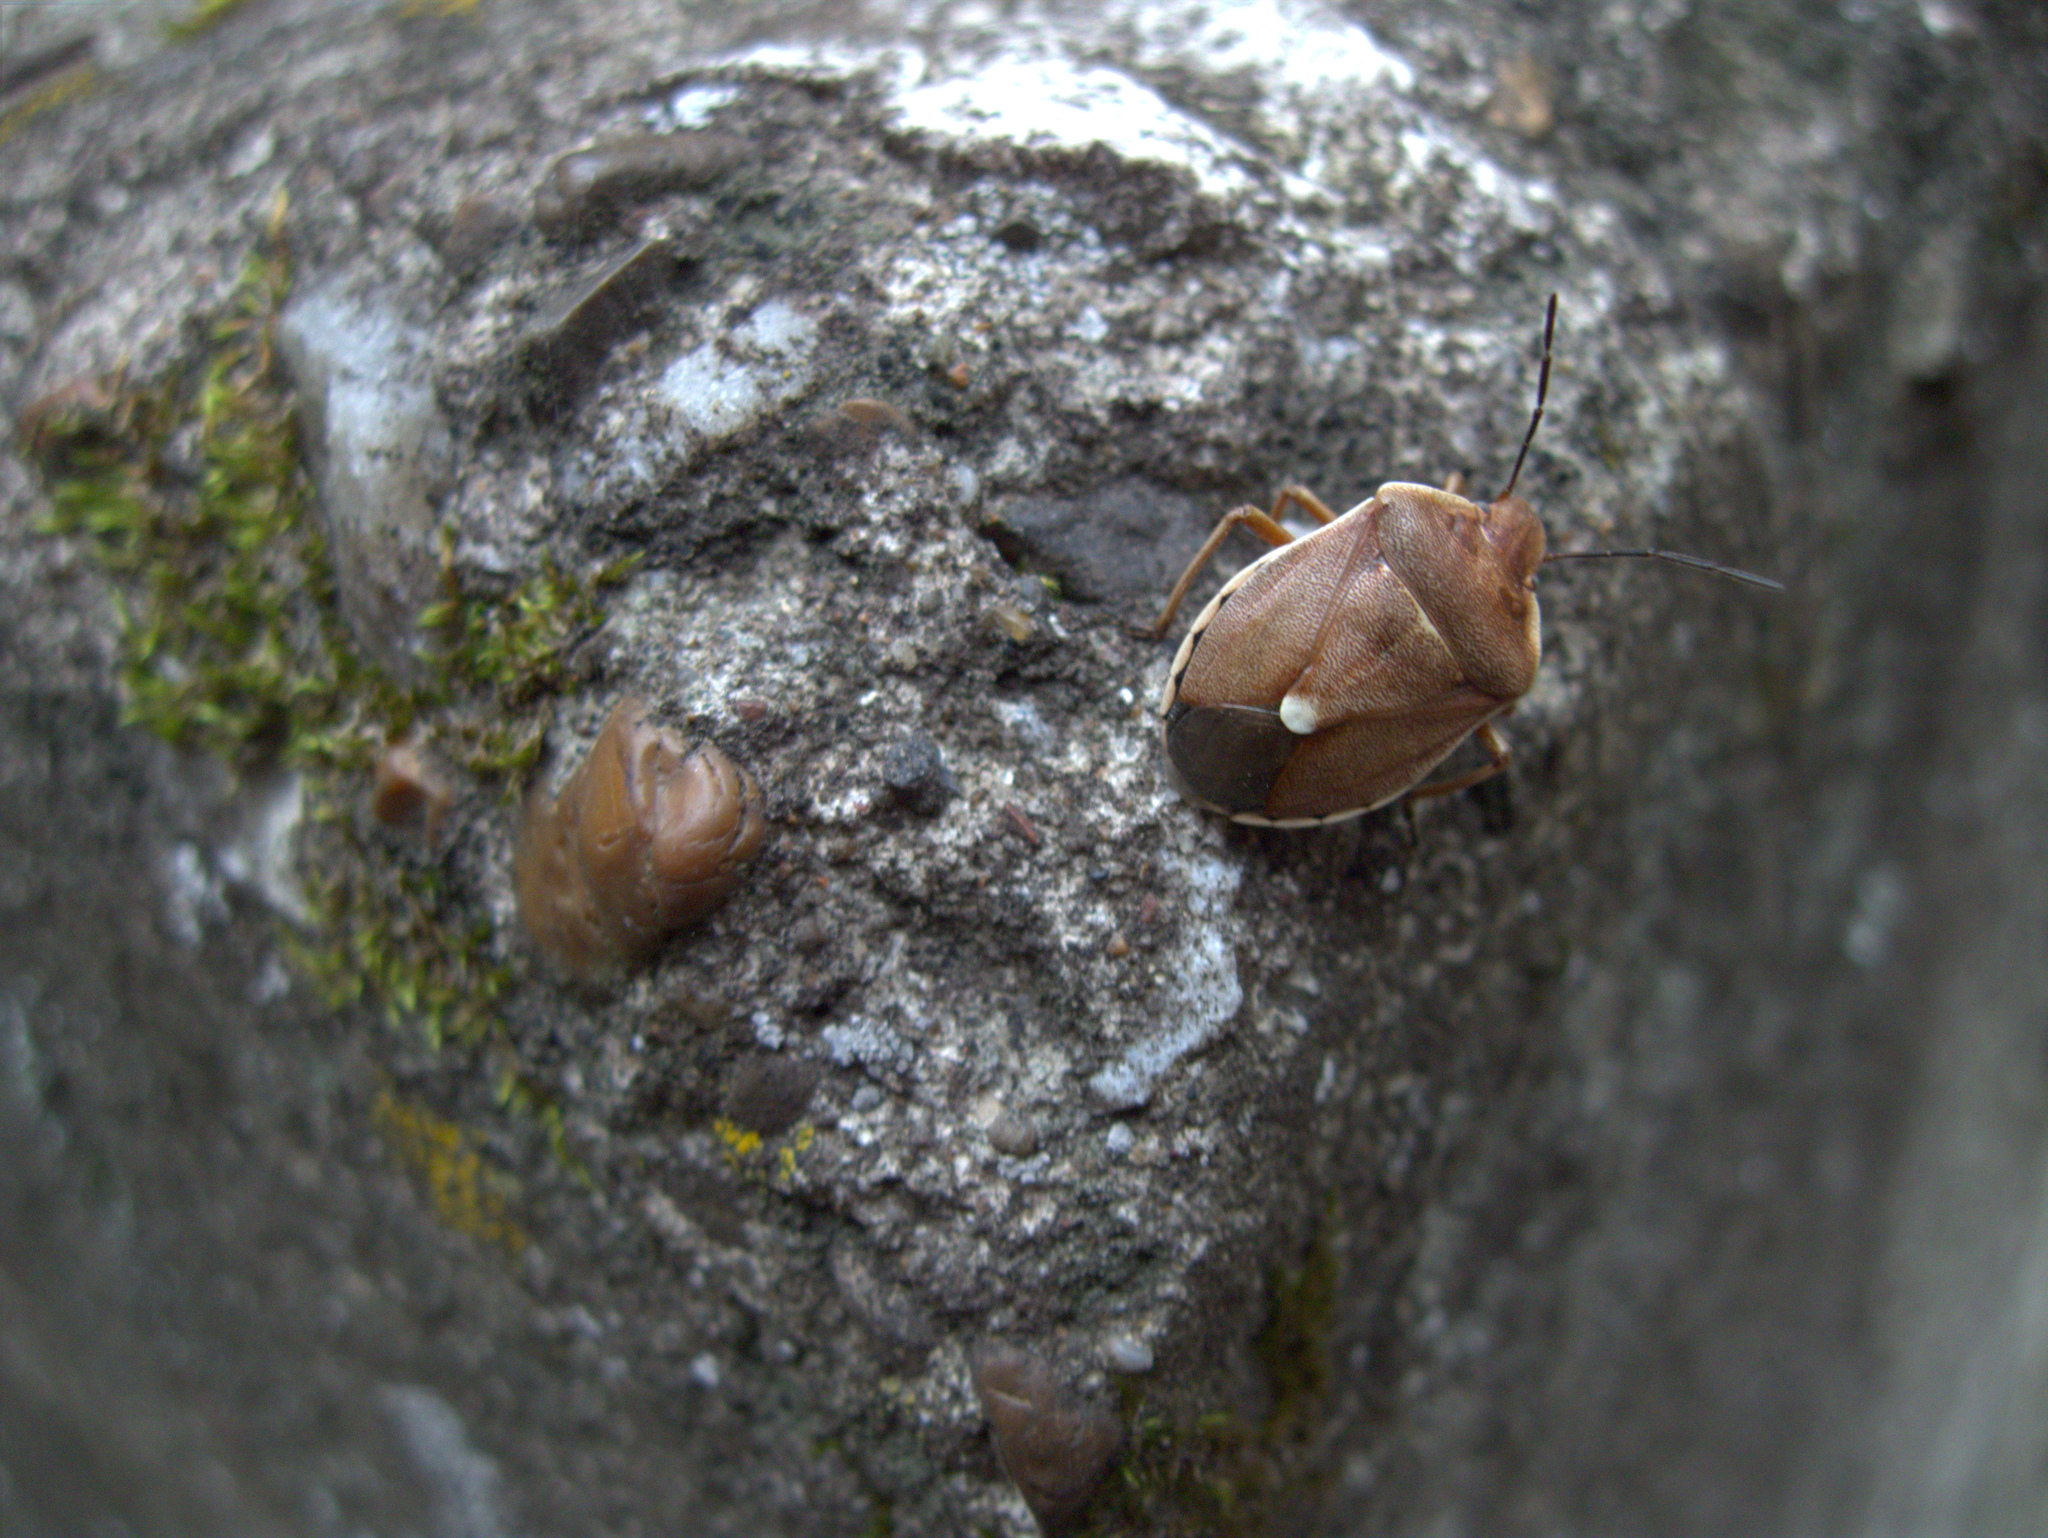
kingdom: Animalia
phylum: Arthropoda
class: Insecta
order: Hemiptera
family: Pentatomidae
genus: Chlorochroa
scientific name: Chlorochroa pinicola
